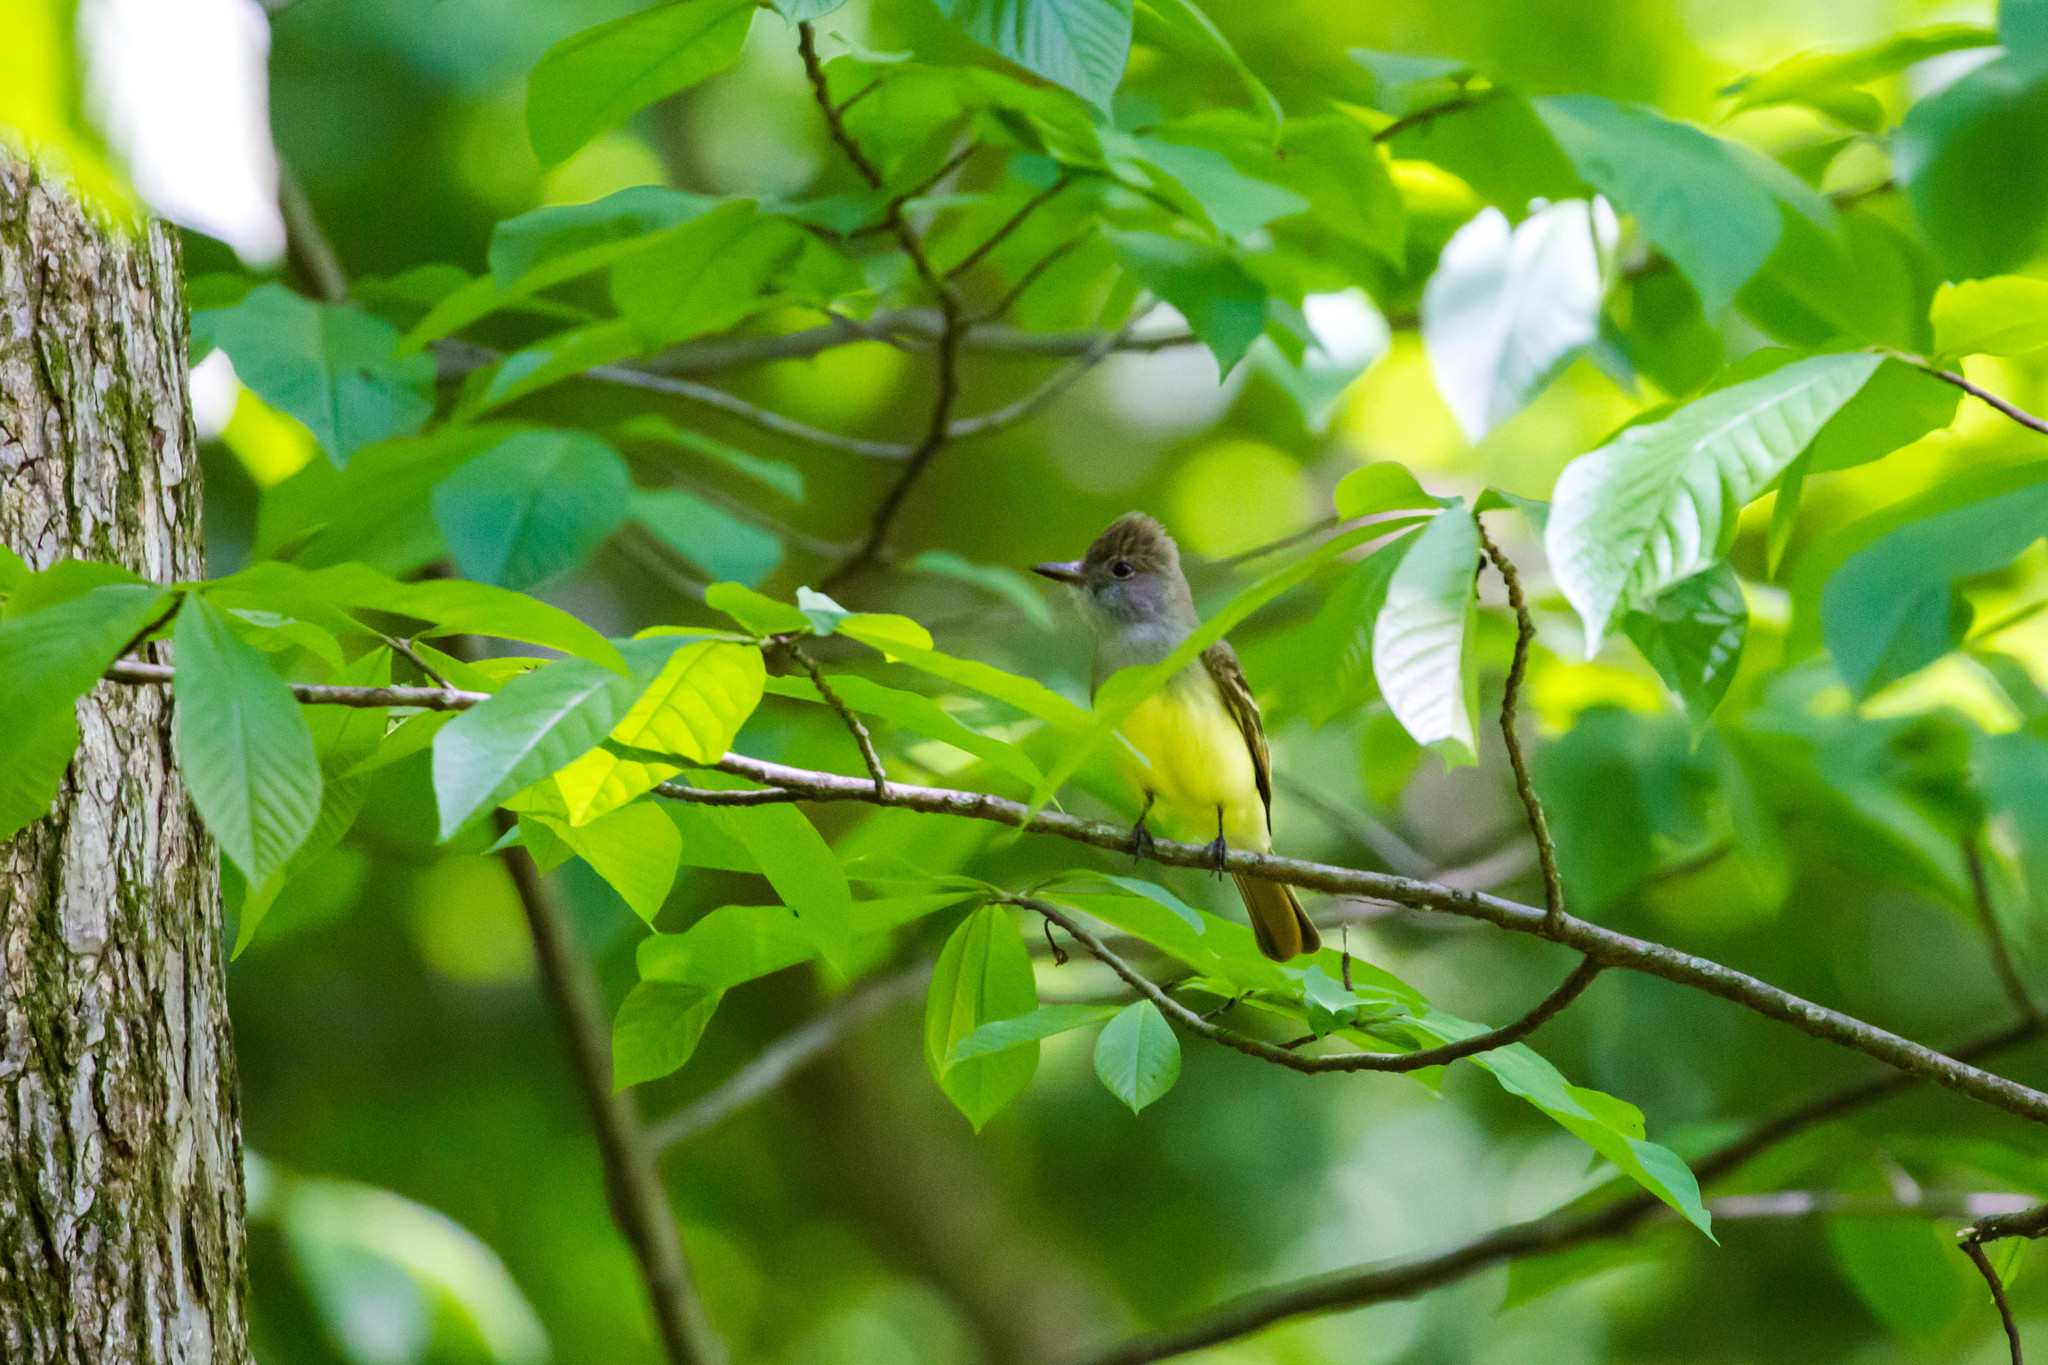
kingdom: Animalia
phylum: Chordata
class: Aves
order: Passeriformes
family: Tyrannidae
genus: Myiarchus
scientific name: Myiarchus crinitus
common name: Great crested flycatcher
